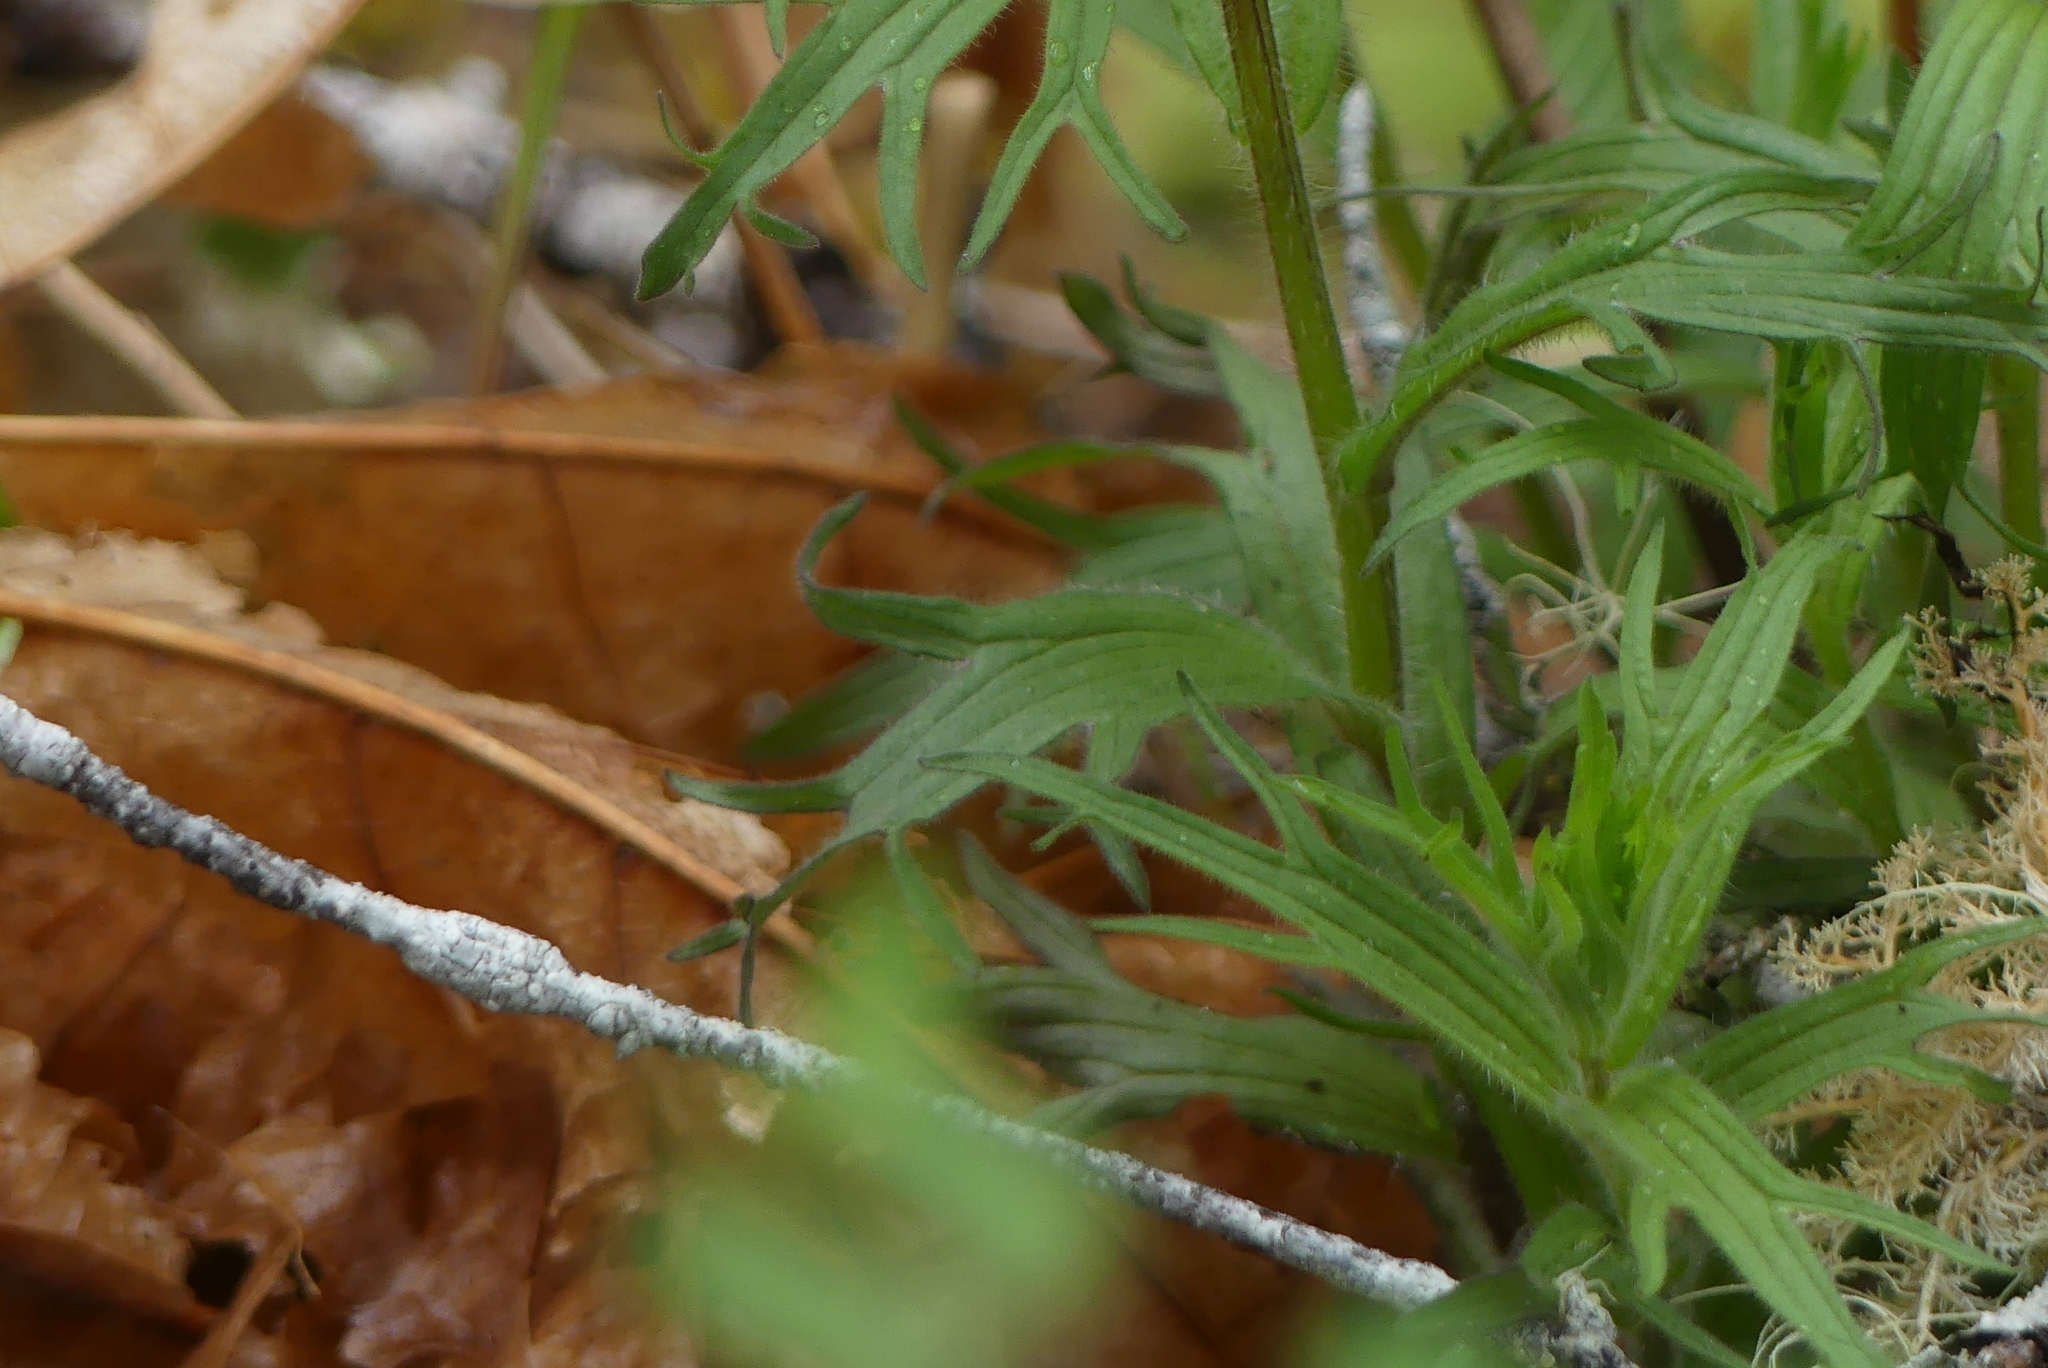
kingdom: Plantae
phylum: Tracheophyta
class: Magnoliopsida
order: Lamiales
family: Orobanchaceae
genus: Castilleja
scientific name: Castilleja hispida
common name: Bristly paintbrush
